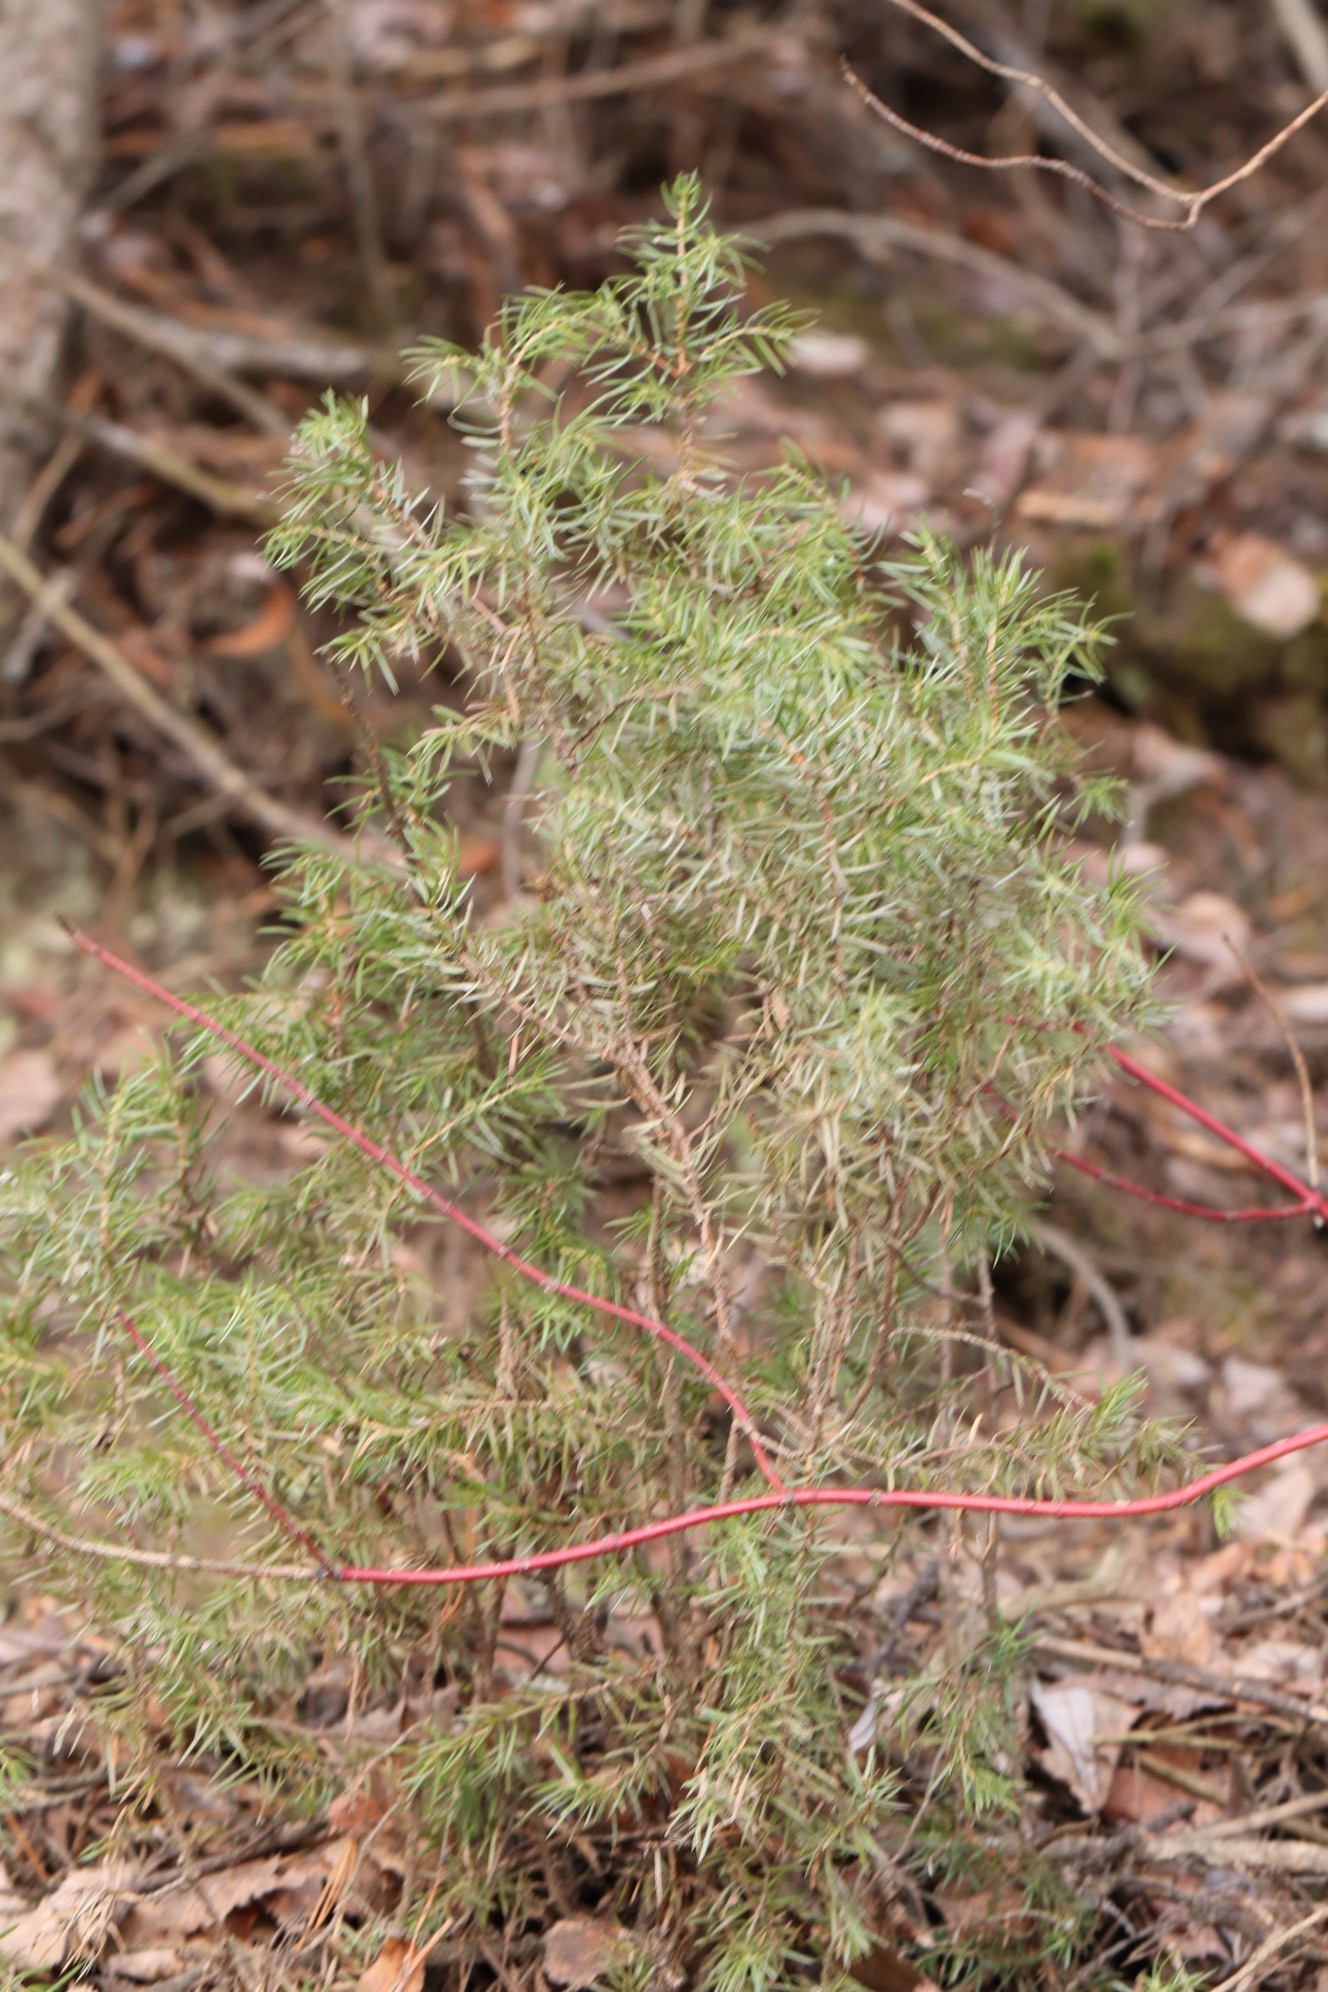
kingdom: Plantae
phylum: Tracheophyta
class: Pinopsida
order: Pinales
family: Cupressaceae
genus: Juniperus
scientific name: Juniperus communis
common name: Common juniper
